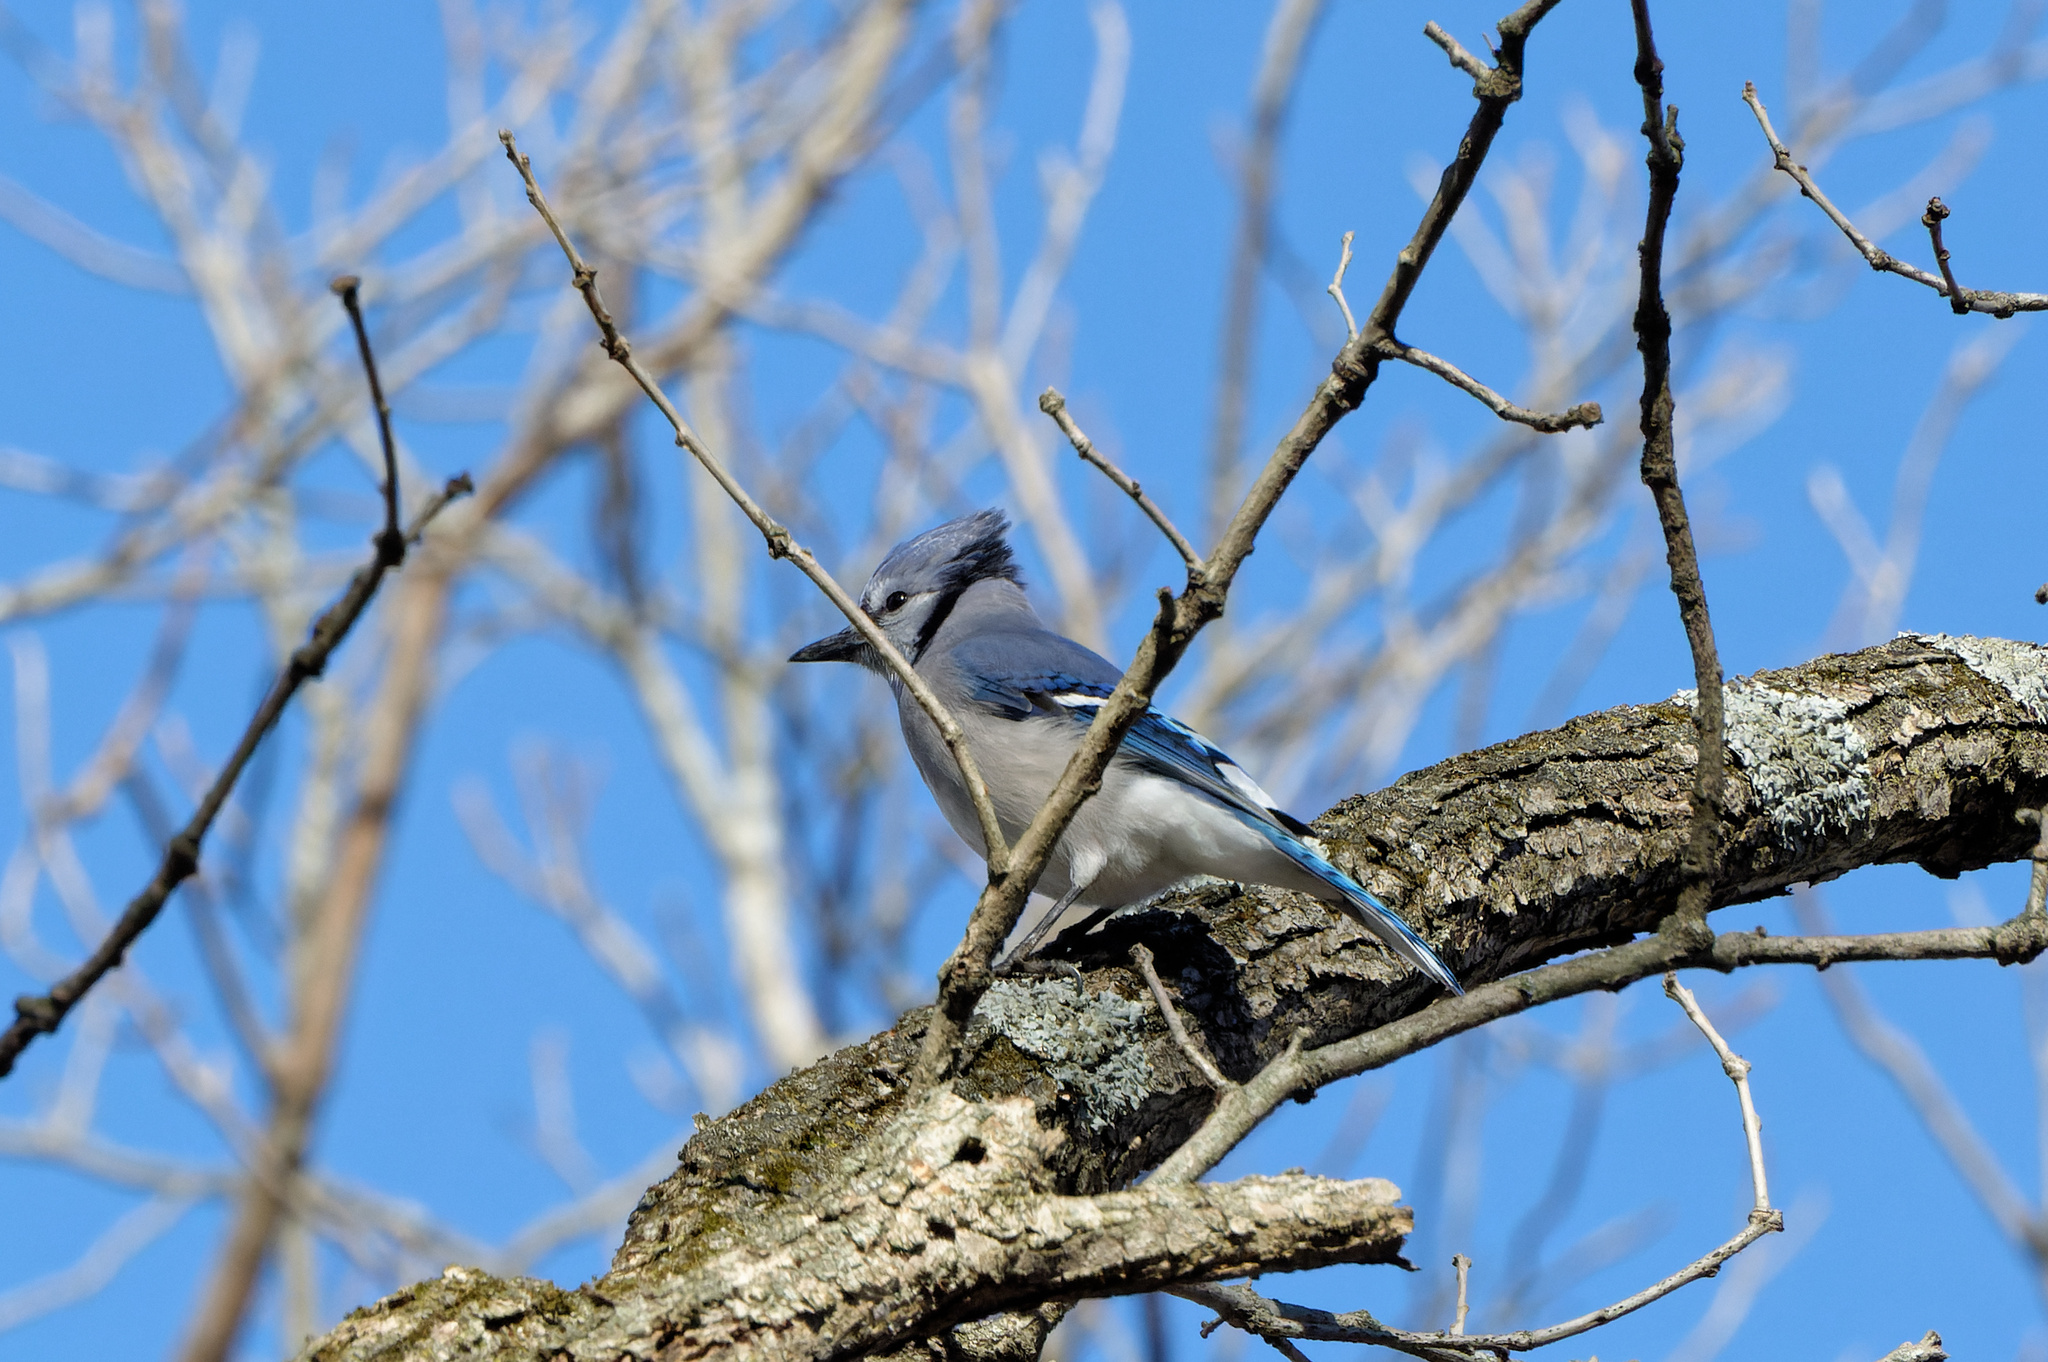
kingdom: Animalia
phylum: Chordata
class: Aves
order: Passeriformes
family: Corvidae
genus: Cyanocitta
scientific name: Cyanocitta cristata
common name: Blue jay
